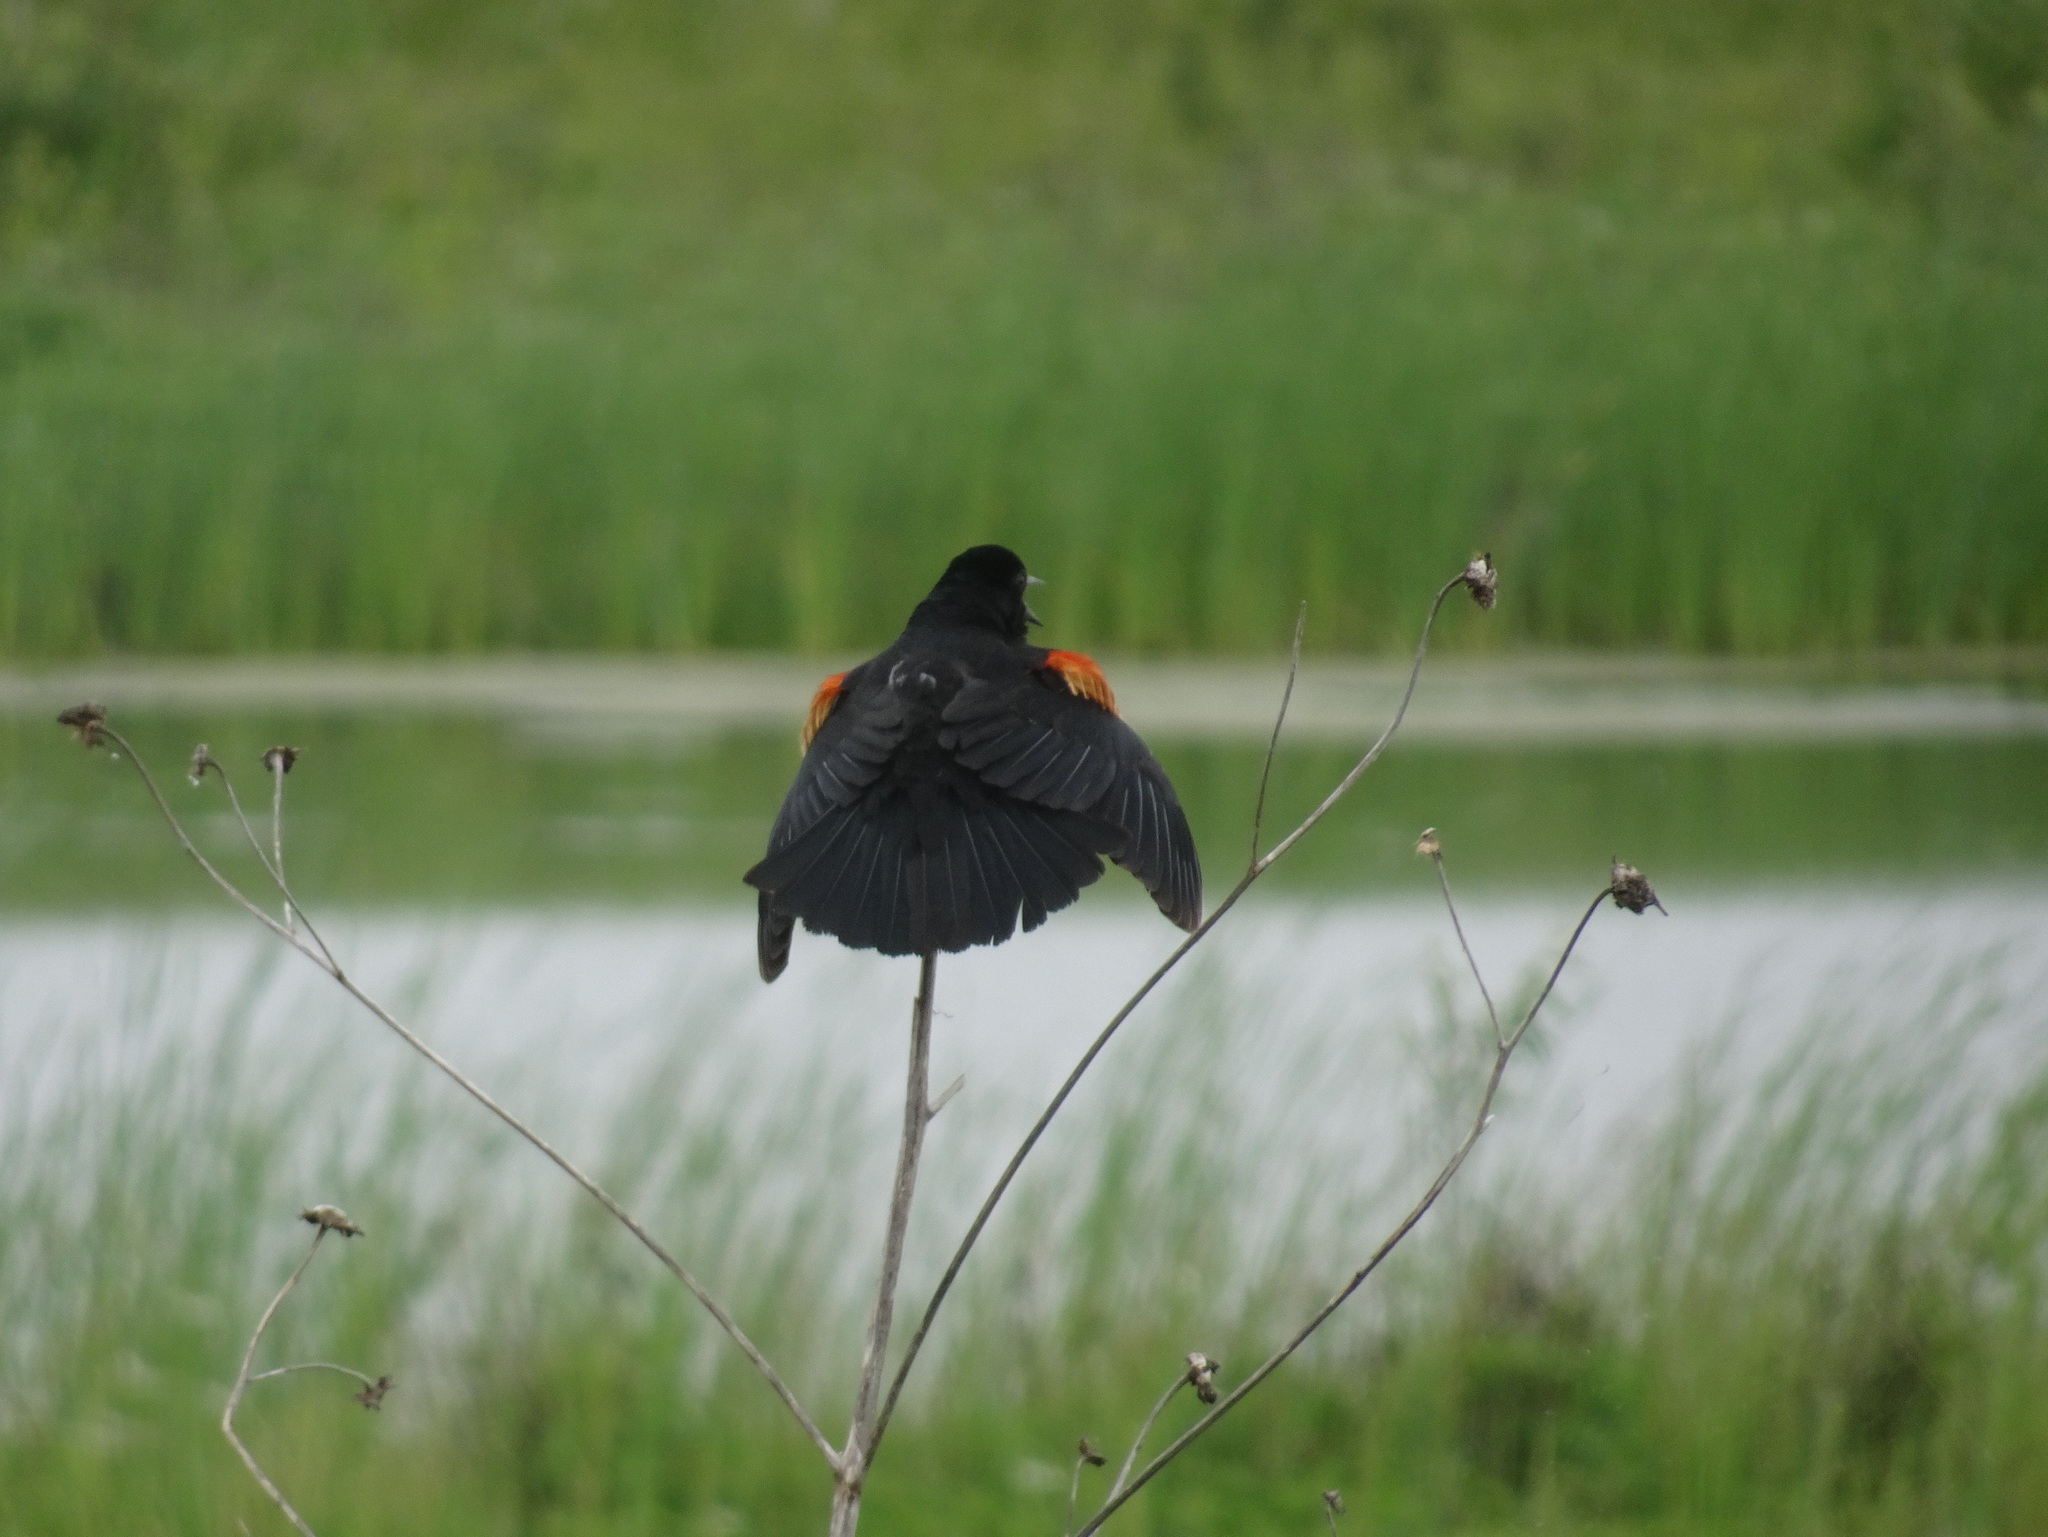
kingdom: Animalia
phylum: Chordata
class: Aves
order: Passeriformes
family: Icteridae
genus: Agelaius
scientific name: Agelaius phoeniceus
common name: Red-winged blackbird
